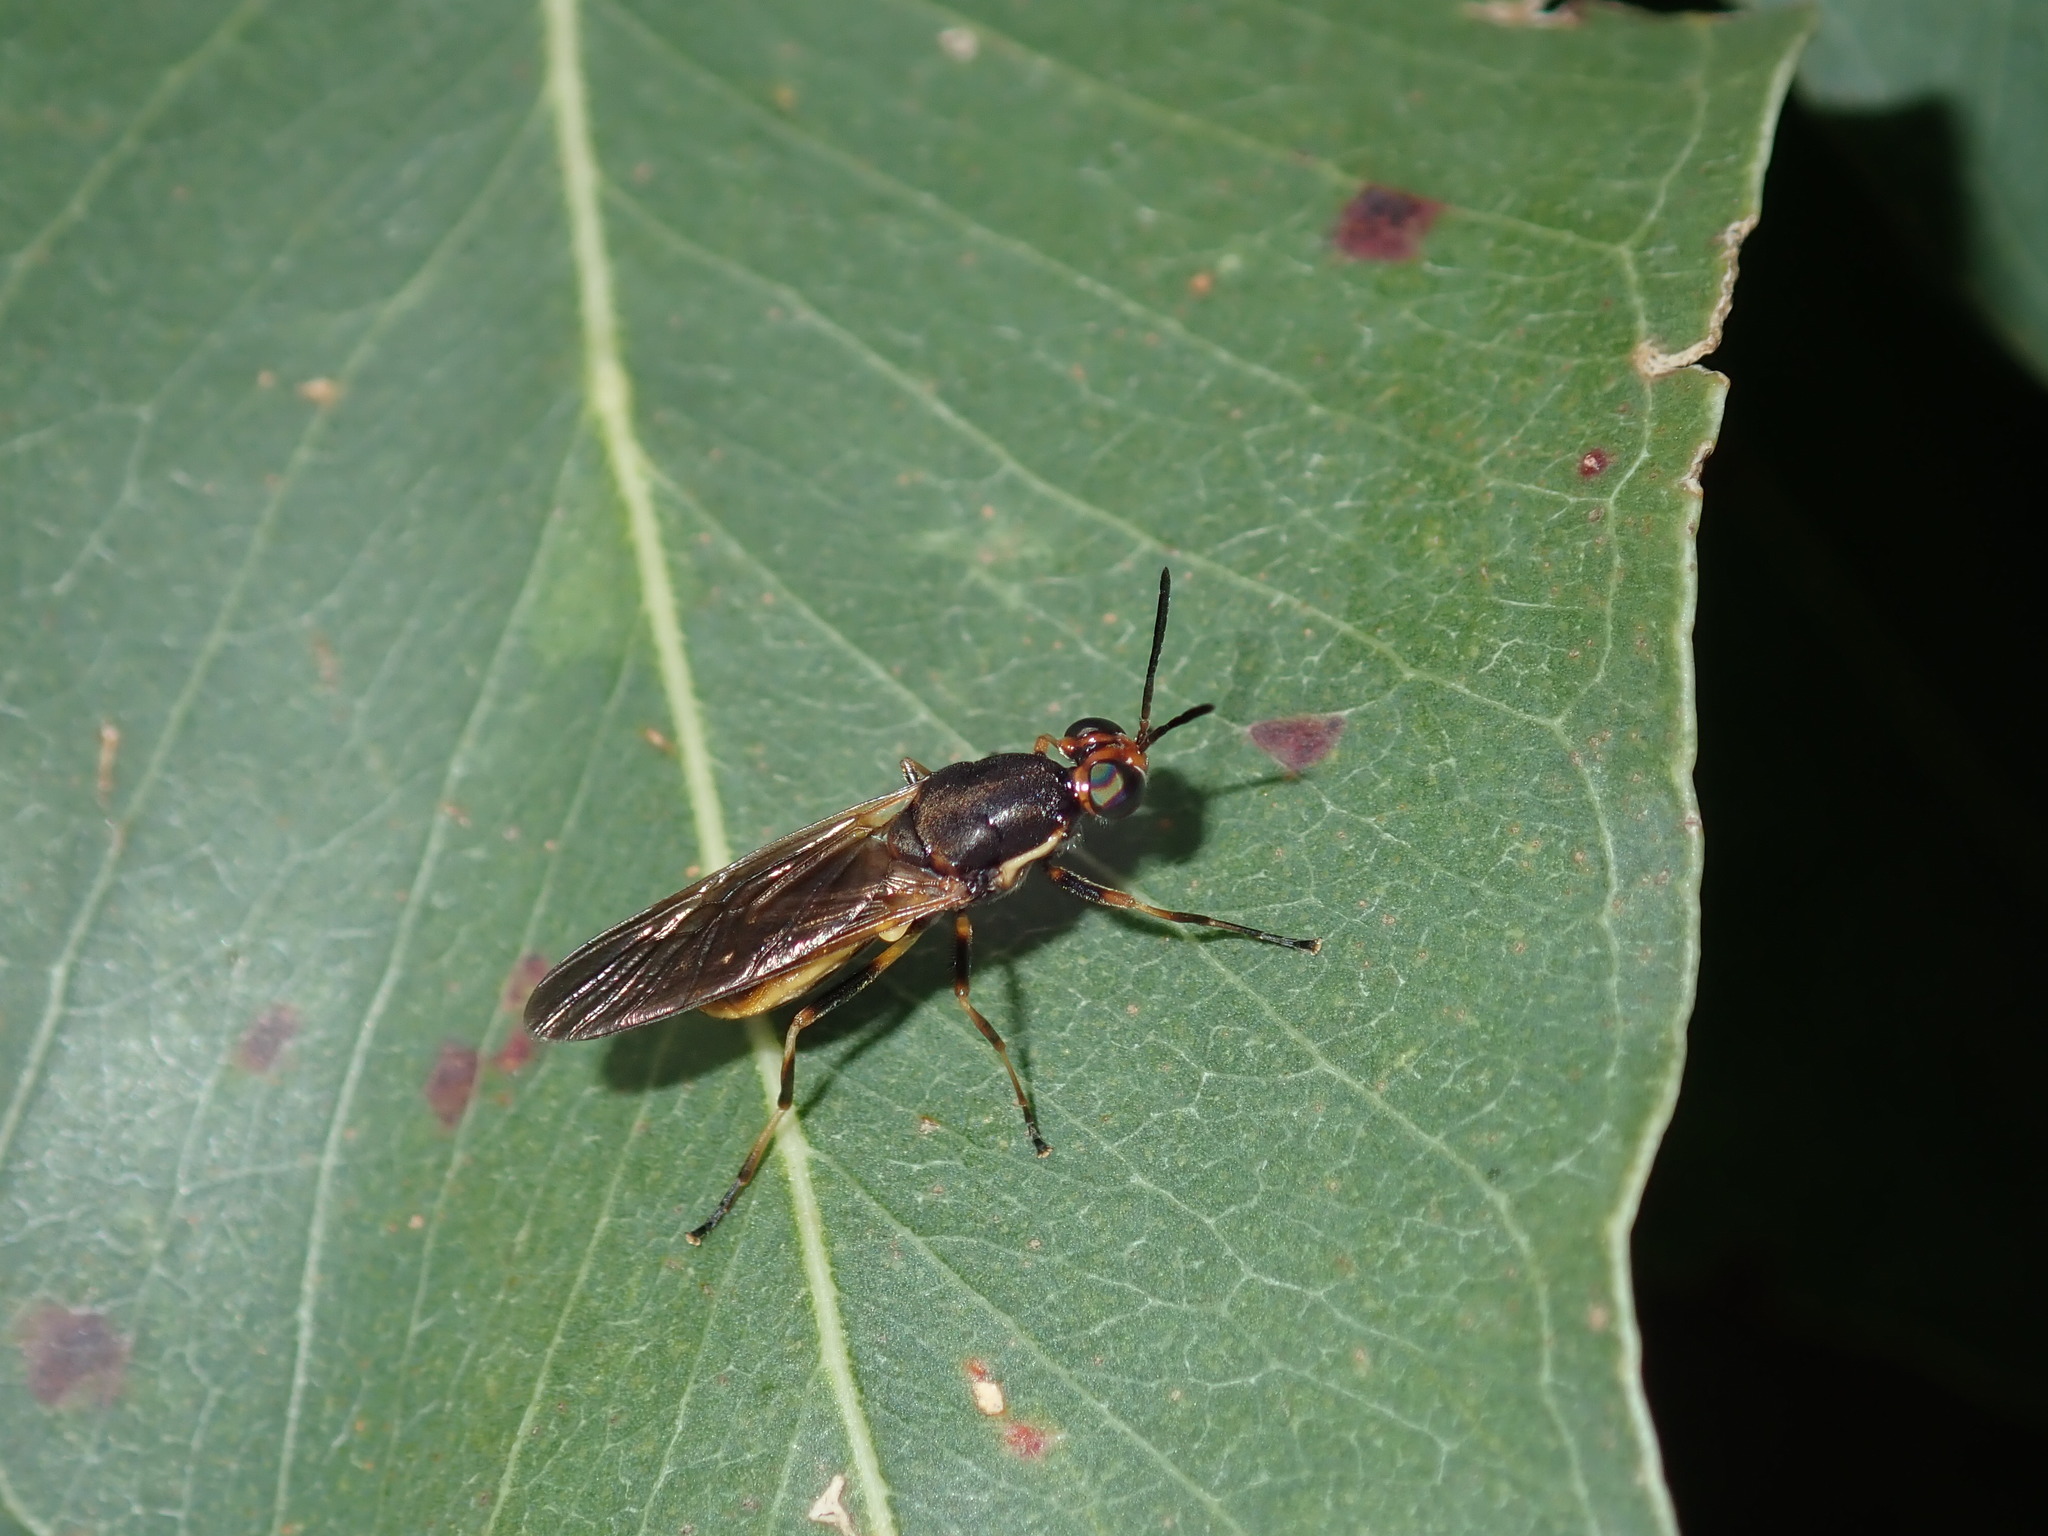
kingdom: Animalia
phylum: Arthropoda
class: Insecta
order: Diptera
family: Stratiomyidae
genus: Lagenosoma
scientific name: Lagenosoma dispar
